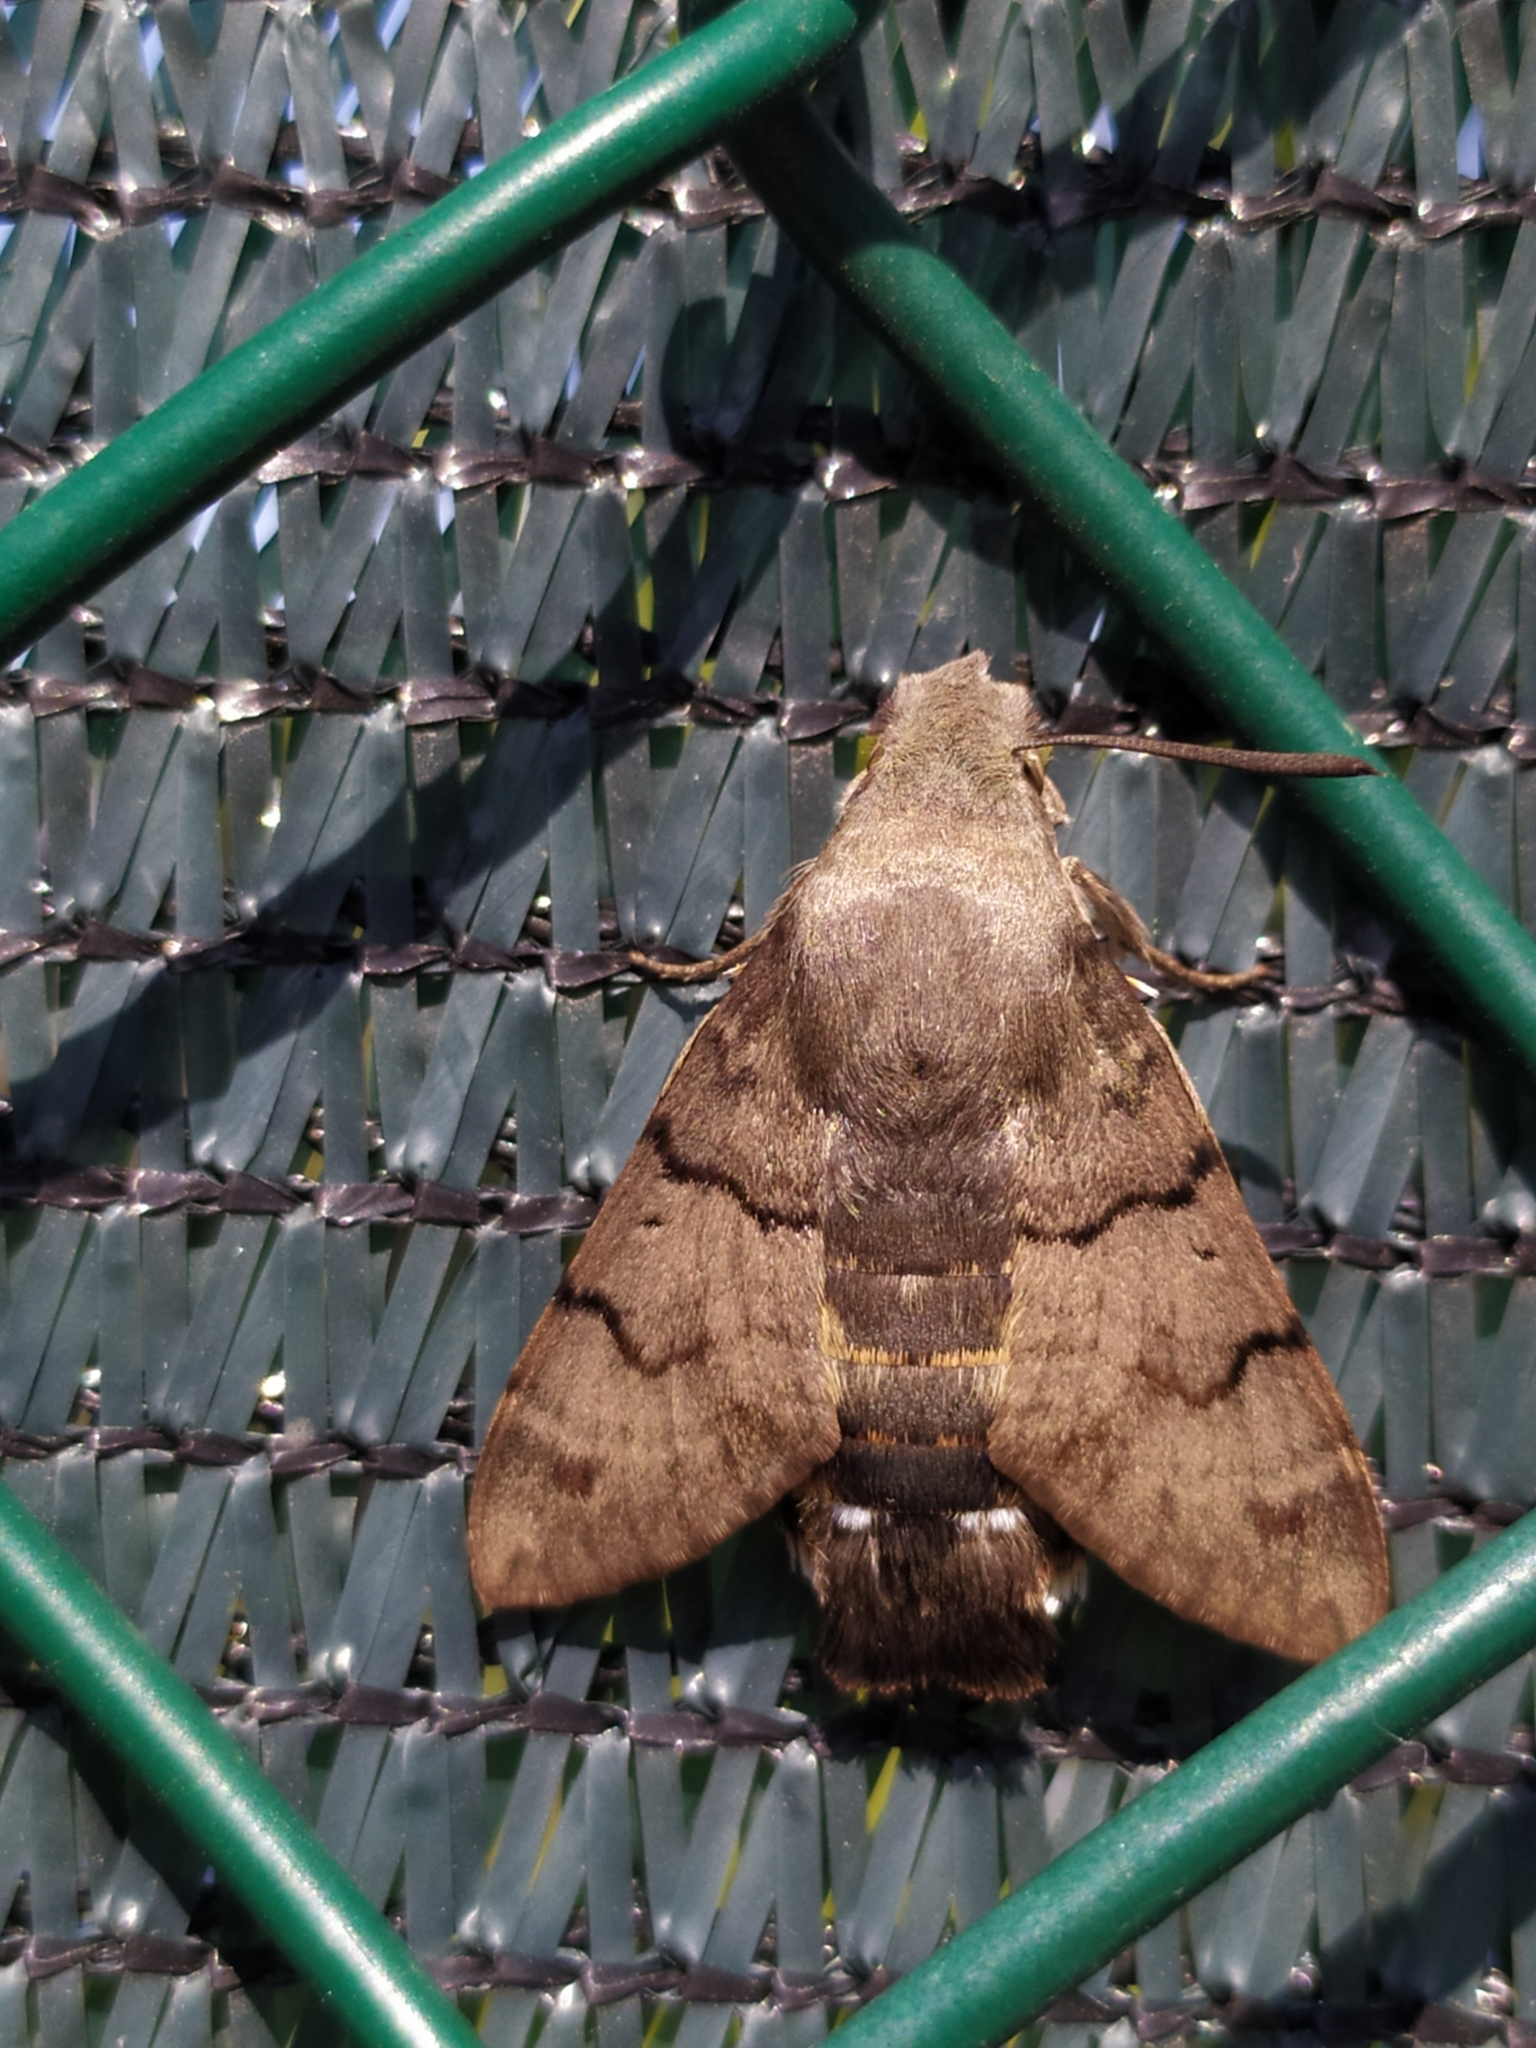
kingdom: Animalia
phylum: Arthropoda
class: Insecta
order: Lepidoptera
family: Sphingidae
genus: Macroglossum
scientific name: Macroglossum stellatarum
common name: Humming-bird hawk-moth
